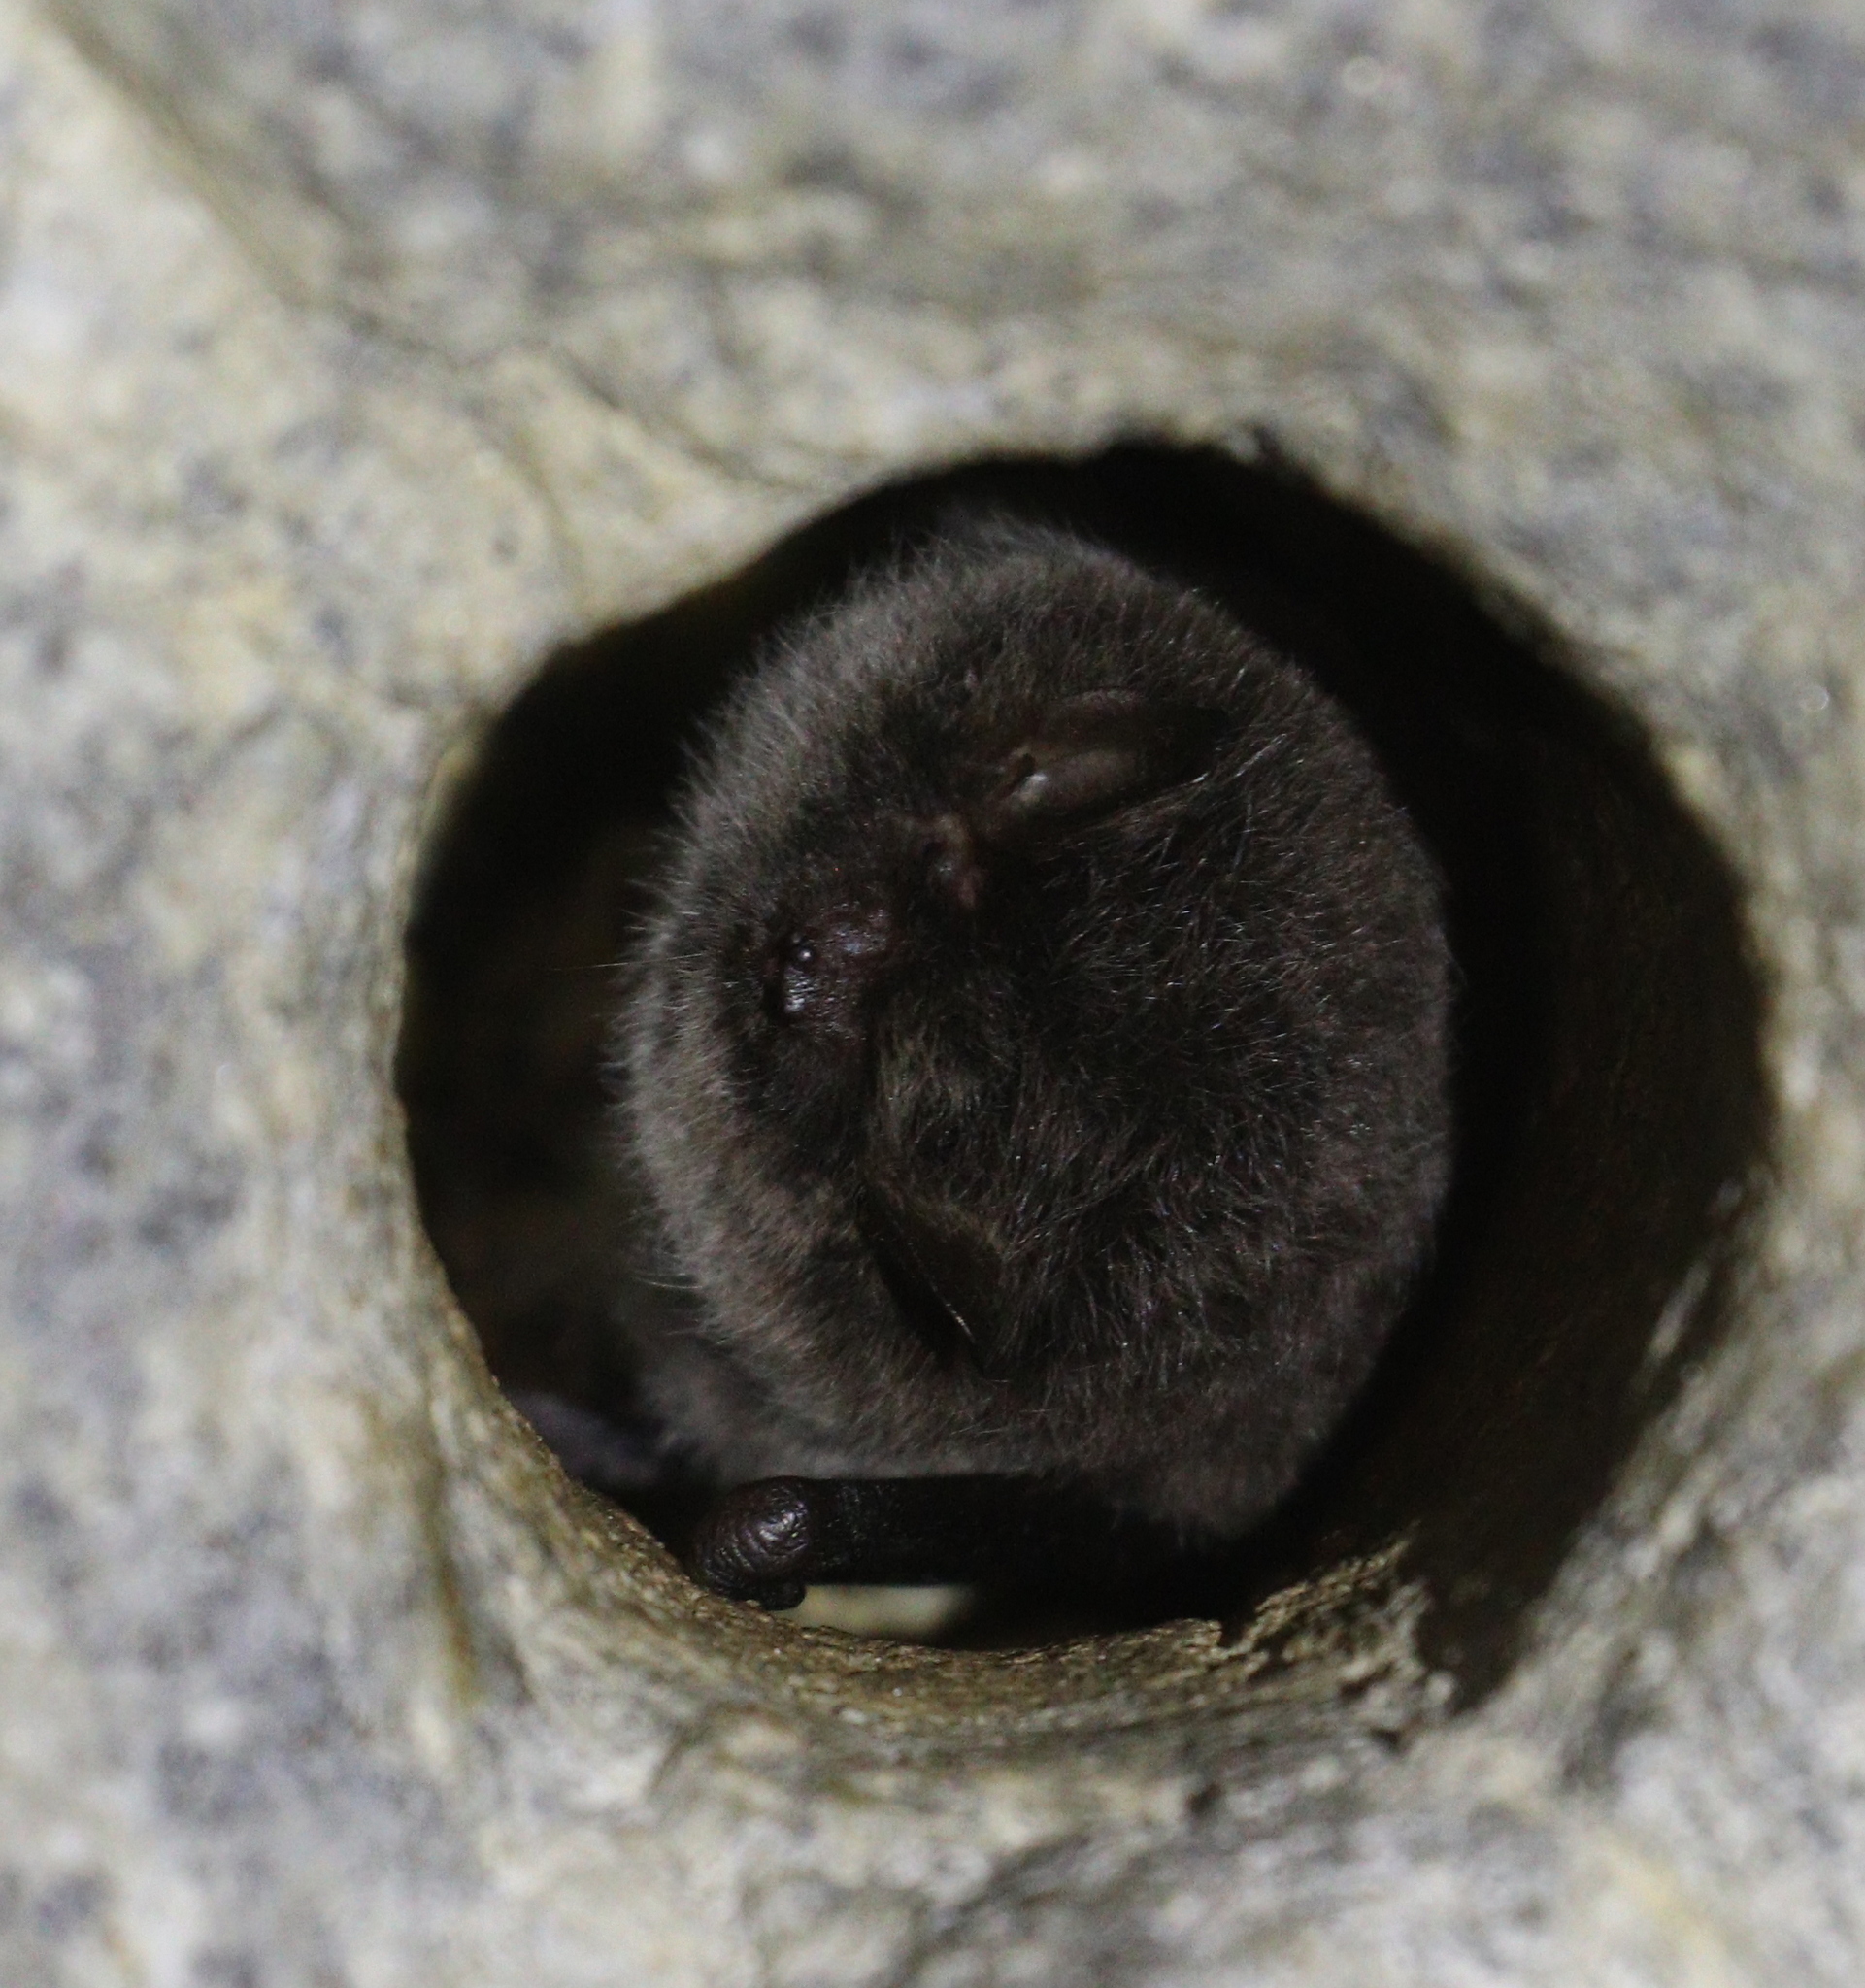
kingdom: Animalia
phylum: Chordata
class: Mammalia
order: Chiroptera
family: Vespertilionidae
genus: Myotis
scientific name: Myotis daubentonii
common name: Daubenton's myotis
